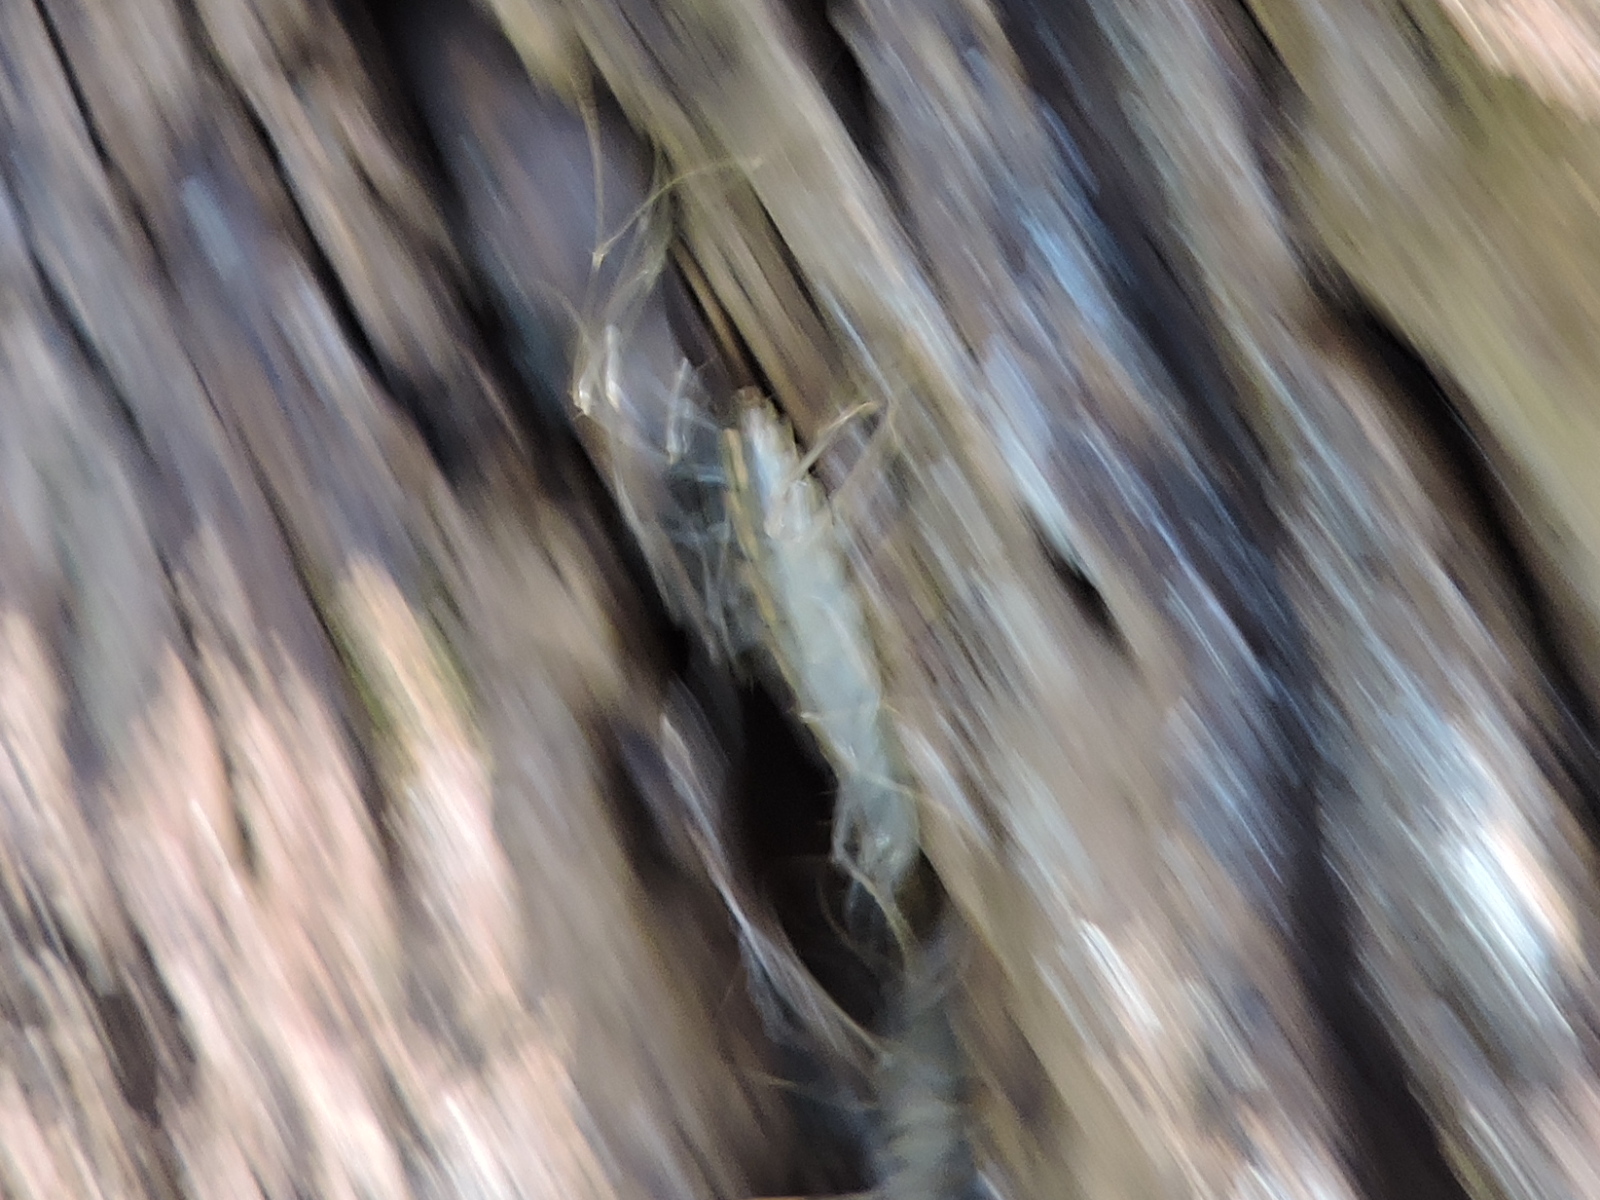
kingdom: Animalia
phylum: Arthropoda
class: Chilopoda
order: Scutigeromorpha
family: Scutigeridae
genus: Scutigera
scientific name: Scutigera coleoptrata
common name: House centipede
